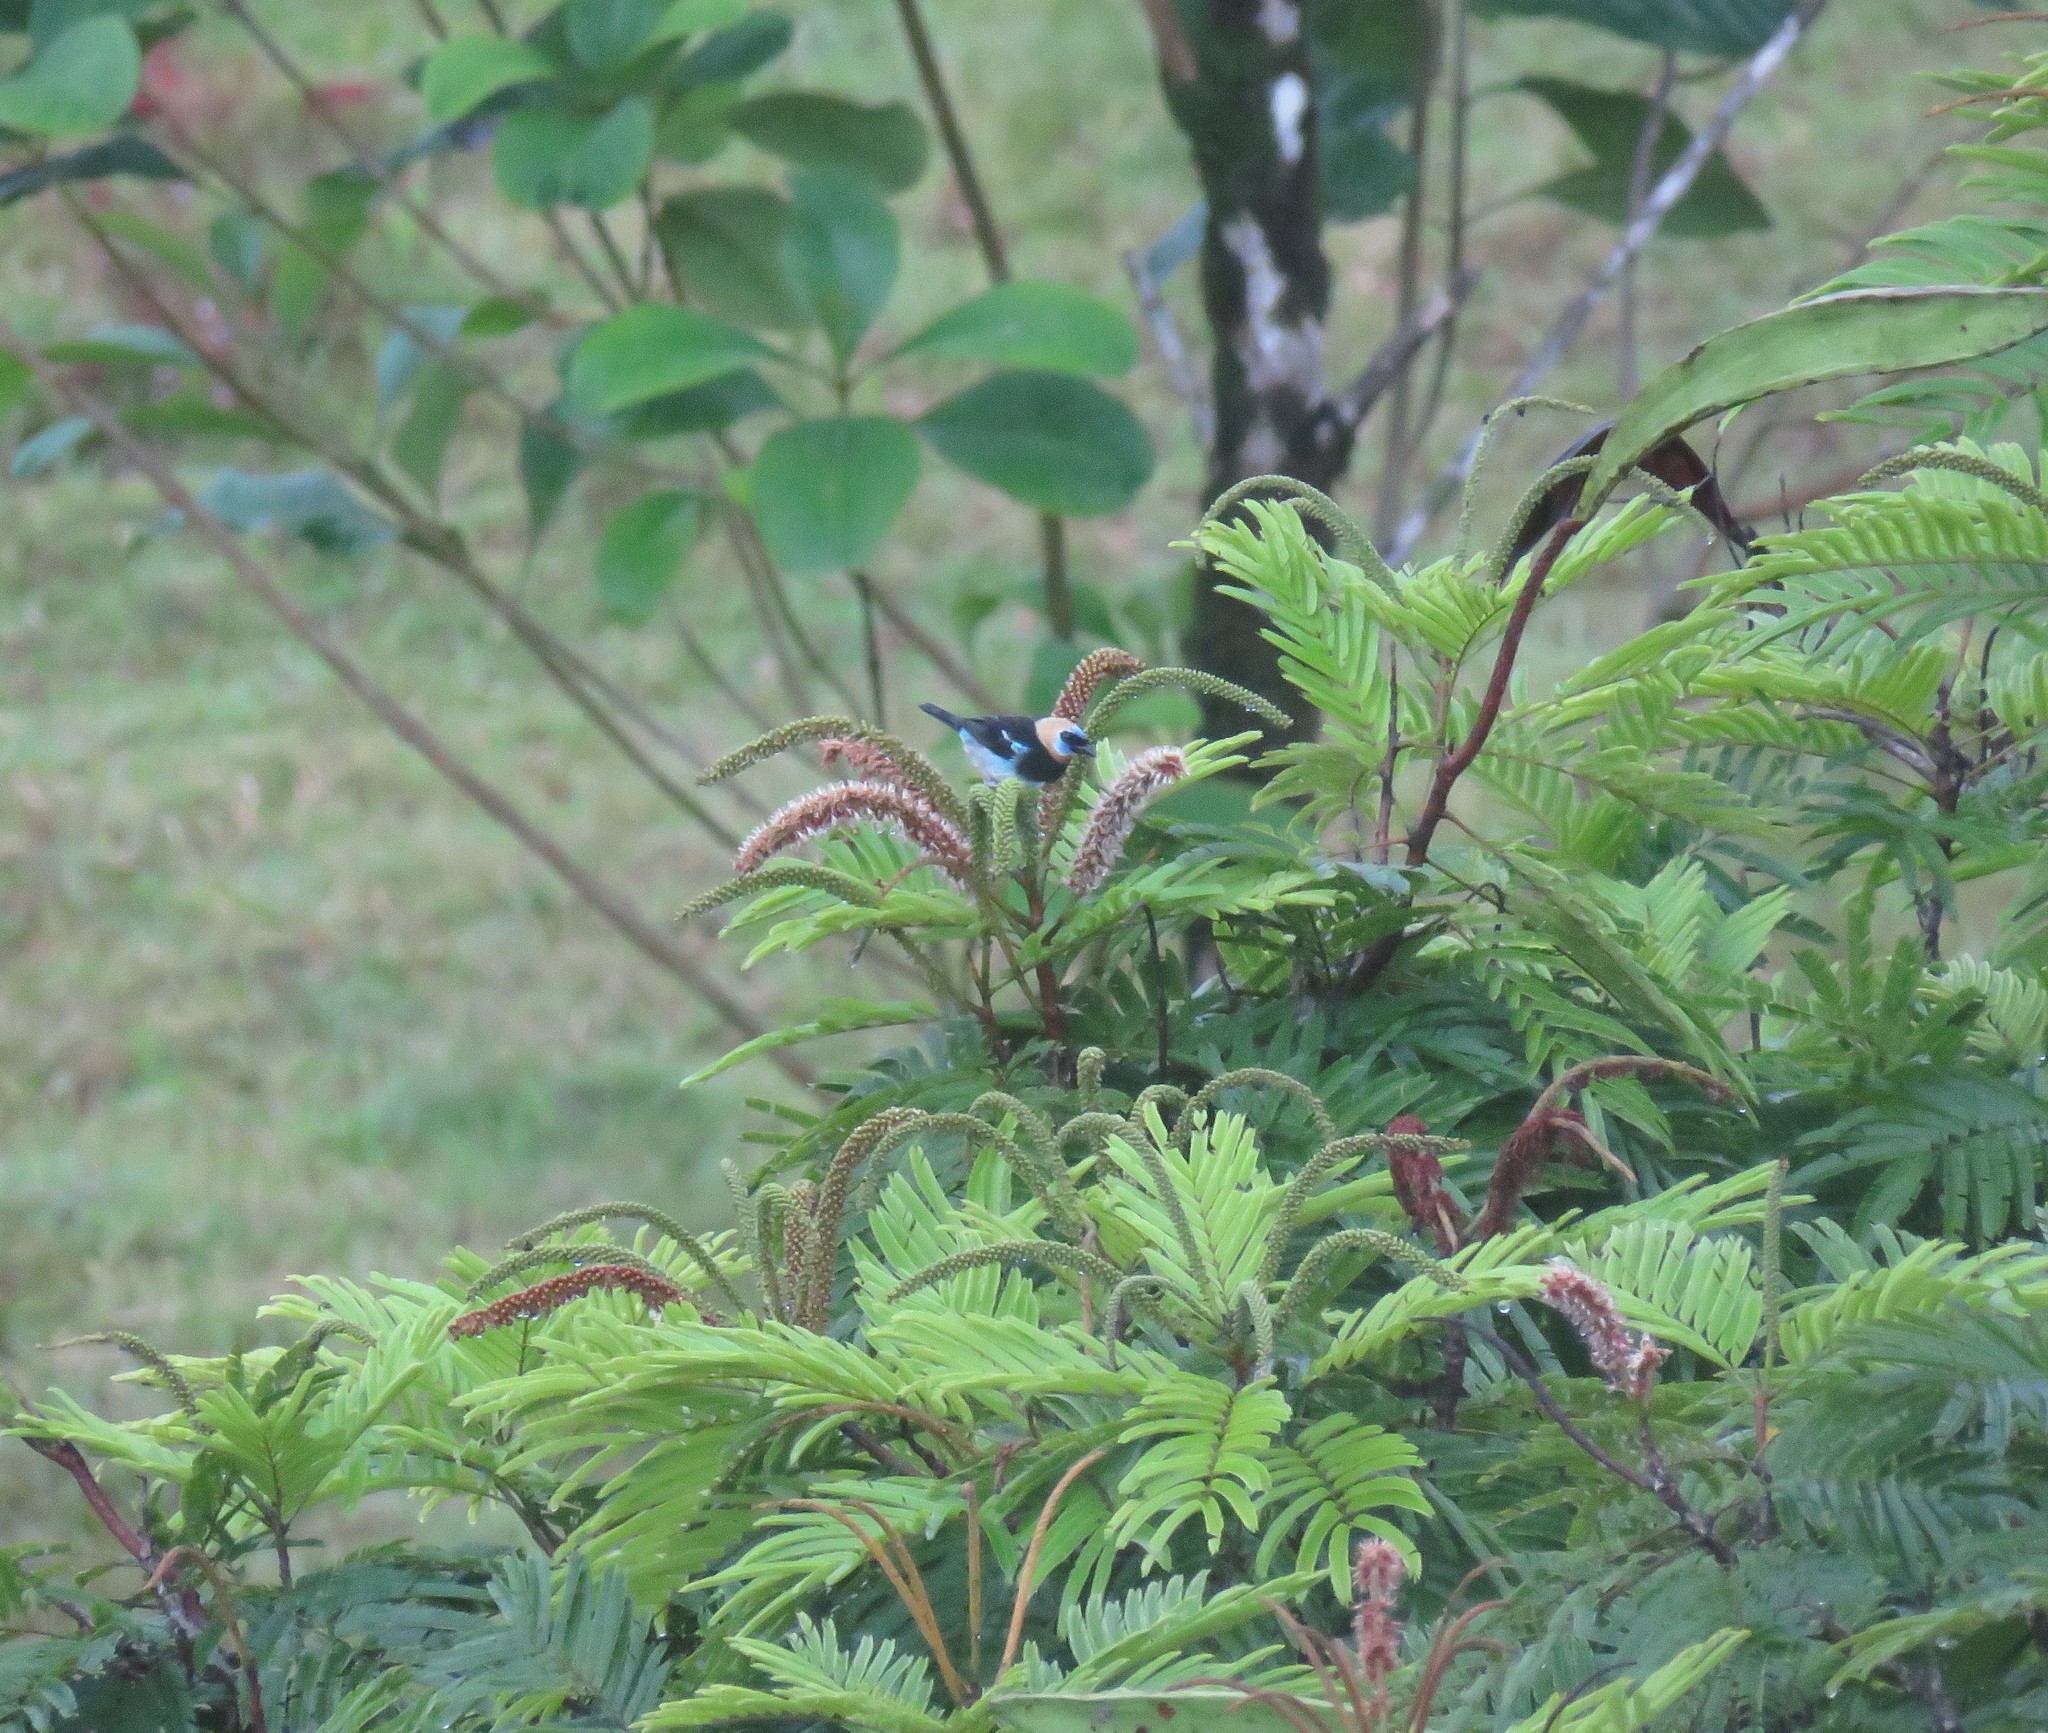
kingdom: Animalia
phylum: Chordata
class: Aves
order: Passeriformes
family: Thraupidae
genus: Stilpnia
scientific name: Stilpnia larvata
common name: Golden-hooded tanager
